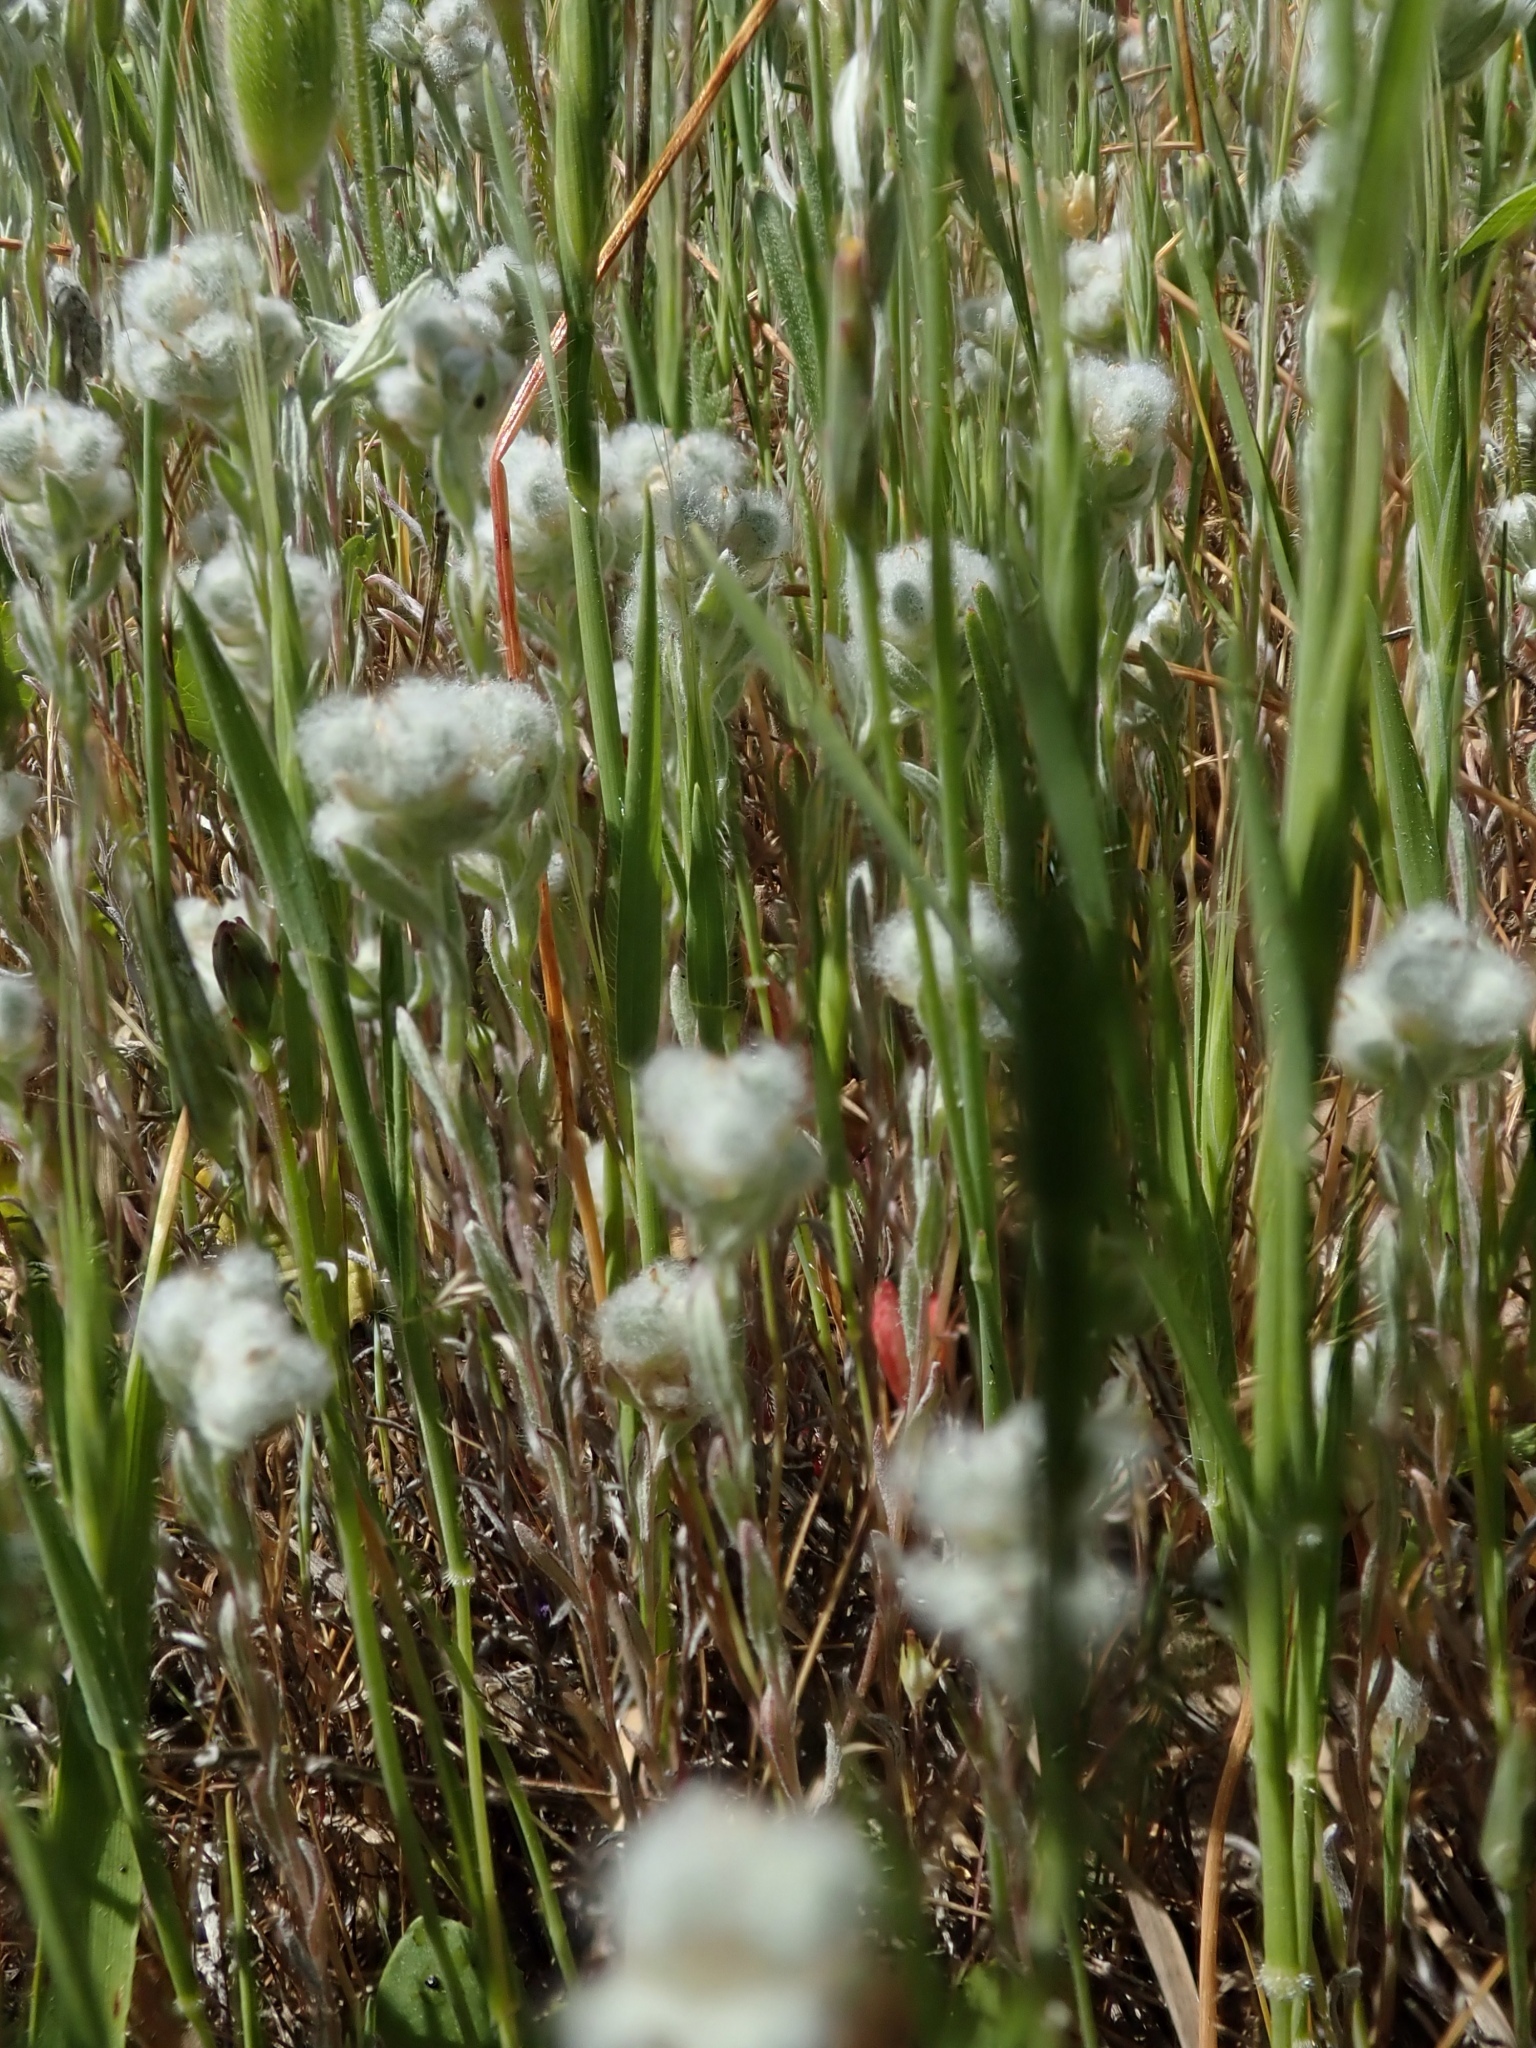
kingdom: Plantae
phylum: Tracheophyta
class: Magnoliopsida
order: Asterales
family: Asteraceae
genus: Bombycilaena
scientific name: Bombycilaena californica
